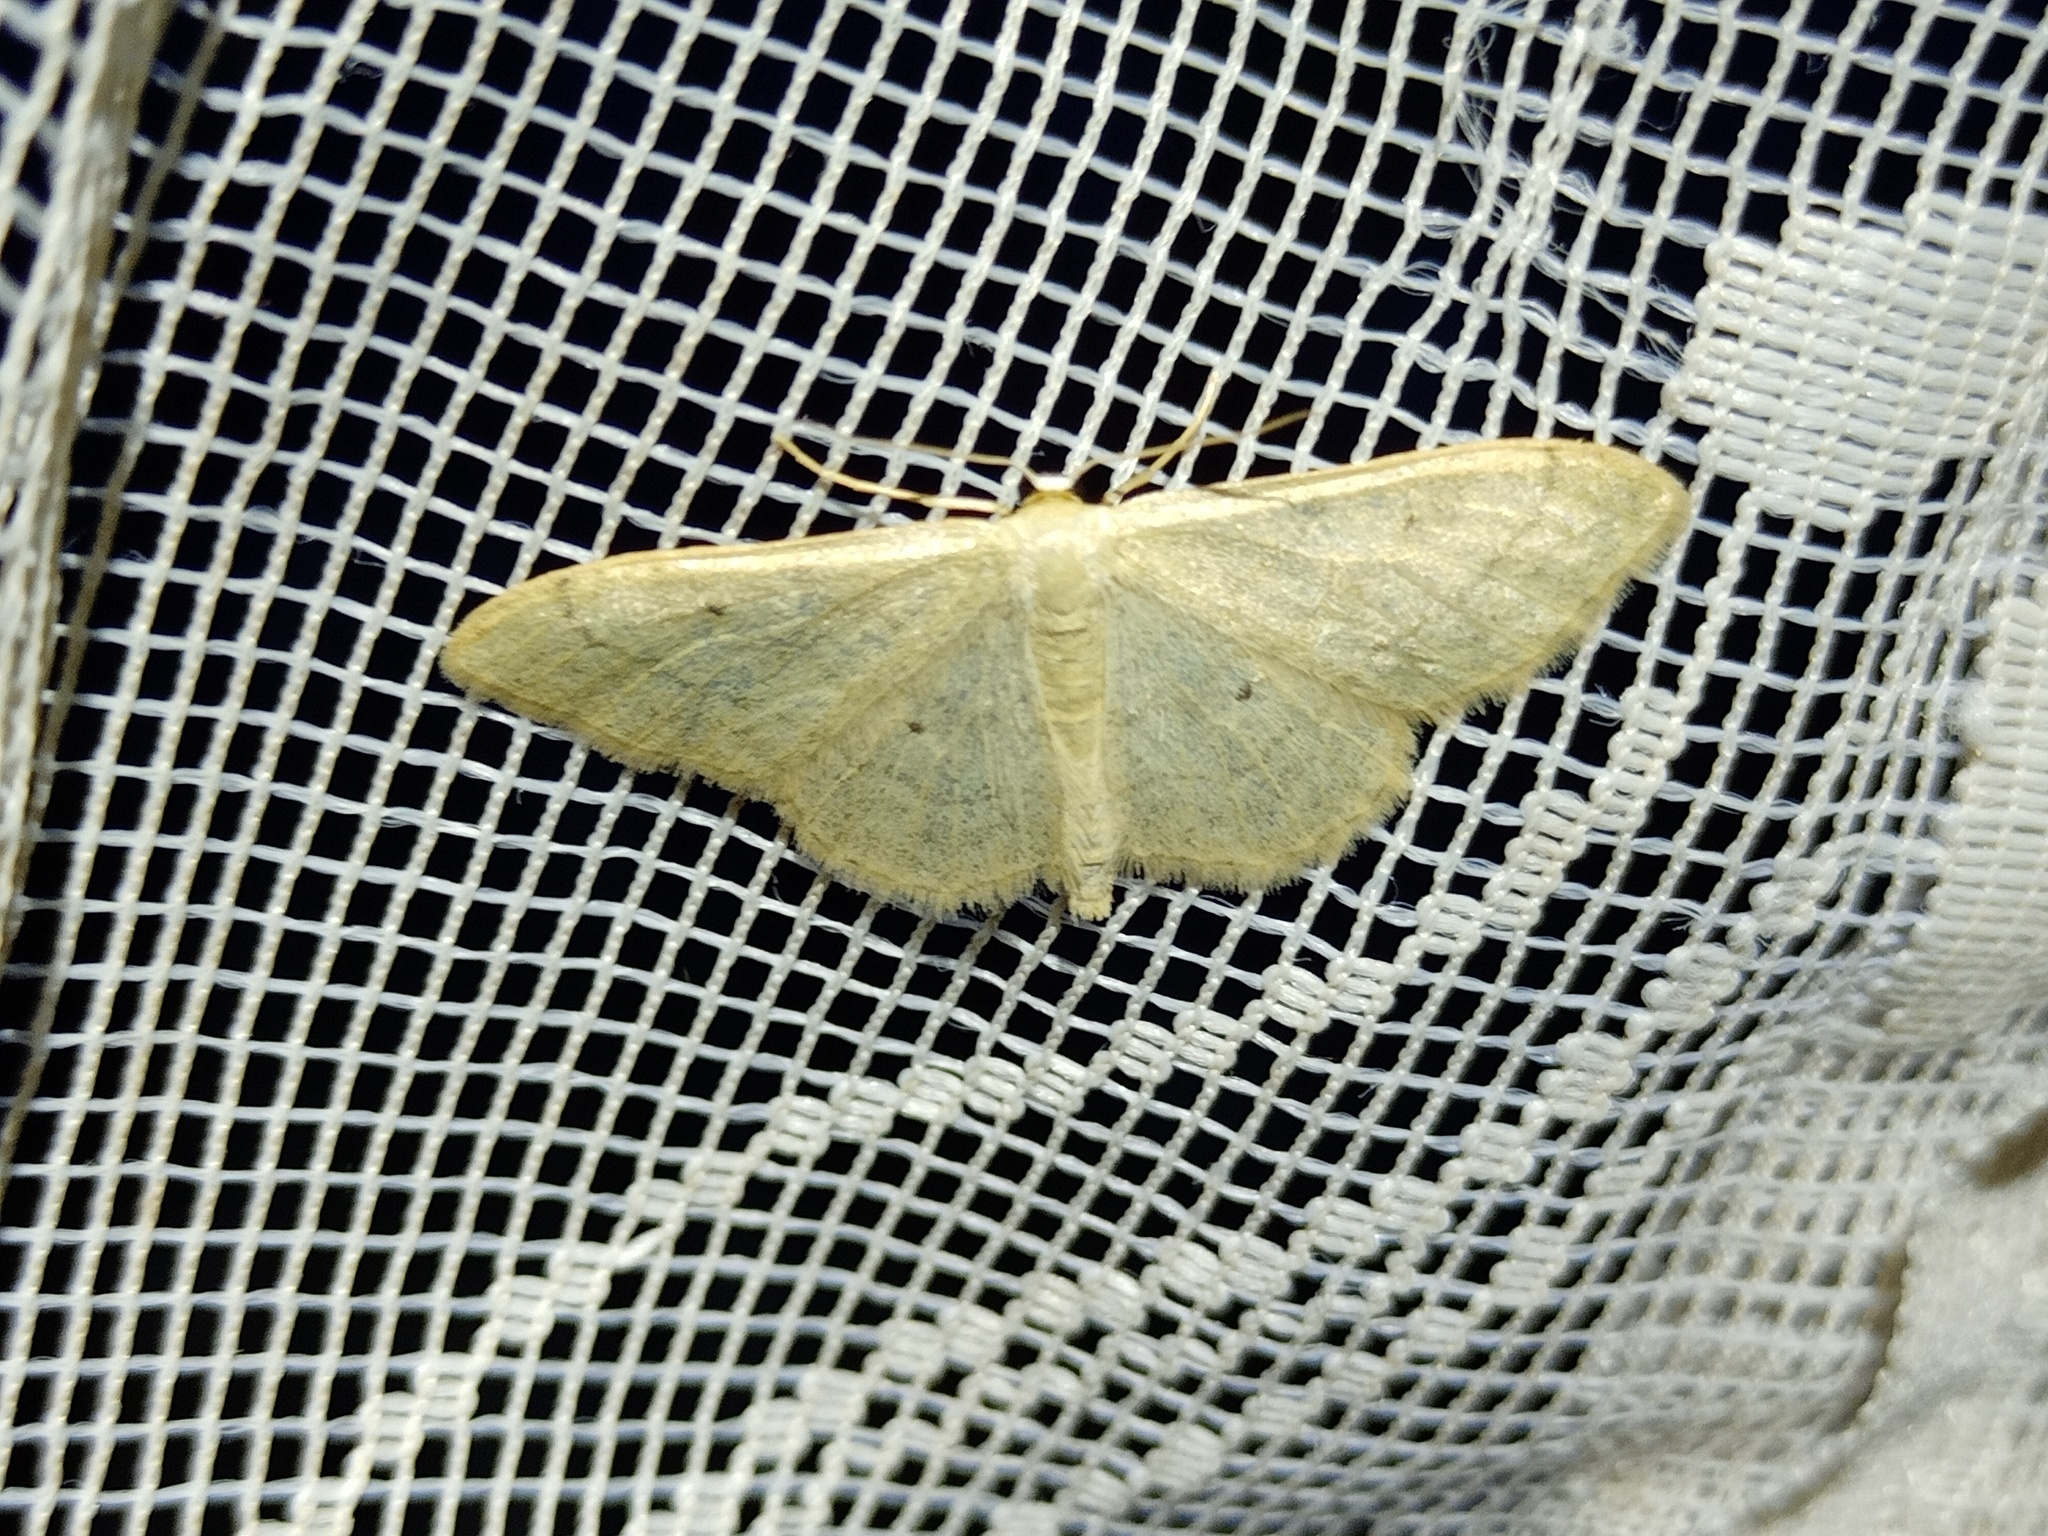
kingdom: Animalia
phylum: Arthropoda
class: Insecta
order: Lepidoptera
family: Geometridae
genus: Idaea
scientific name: Idaea straminata
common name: Plain wave
